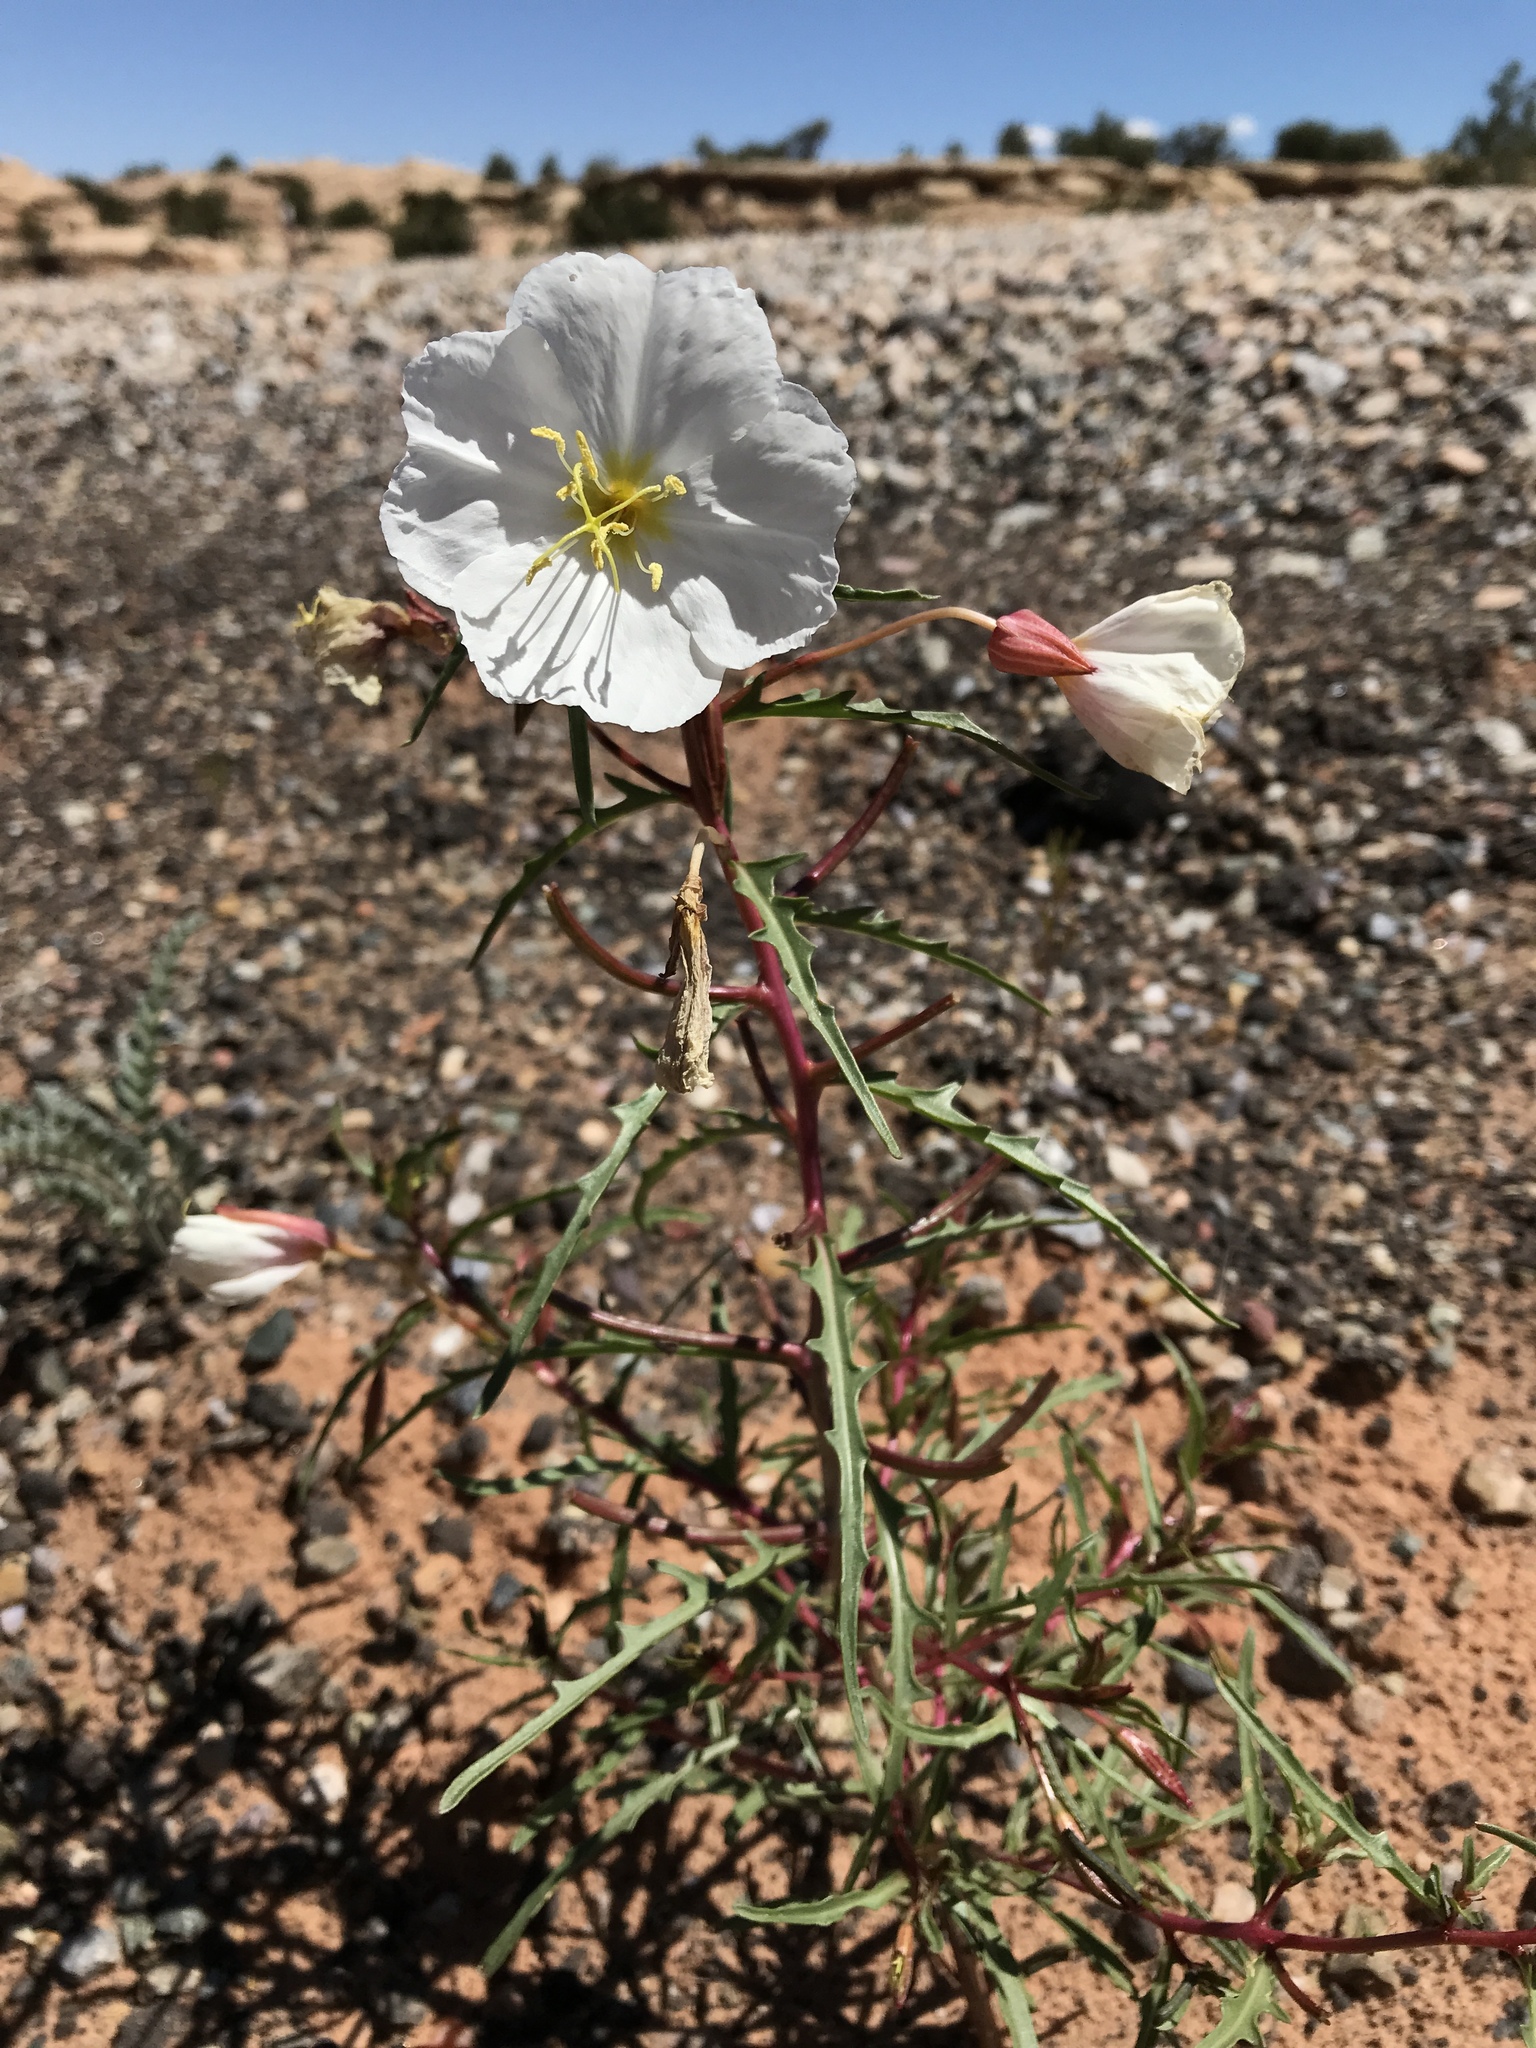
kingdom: Plantae
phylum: Tracheophyta
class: Magnoliopsida
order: Myrtales
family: Onagraceae
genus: Oenothera
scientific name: Oenothera pallida
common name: Pale evening-primrose
